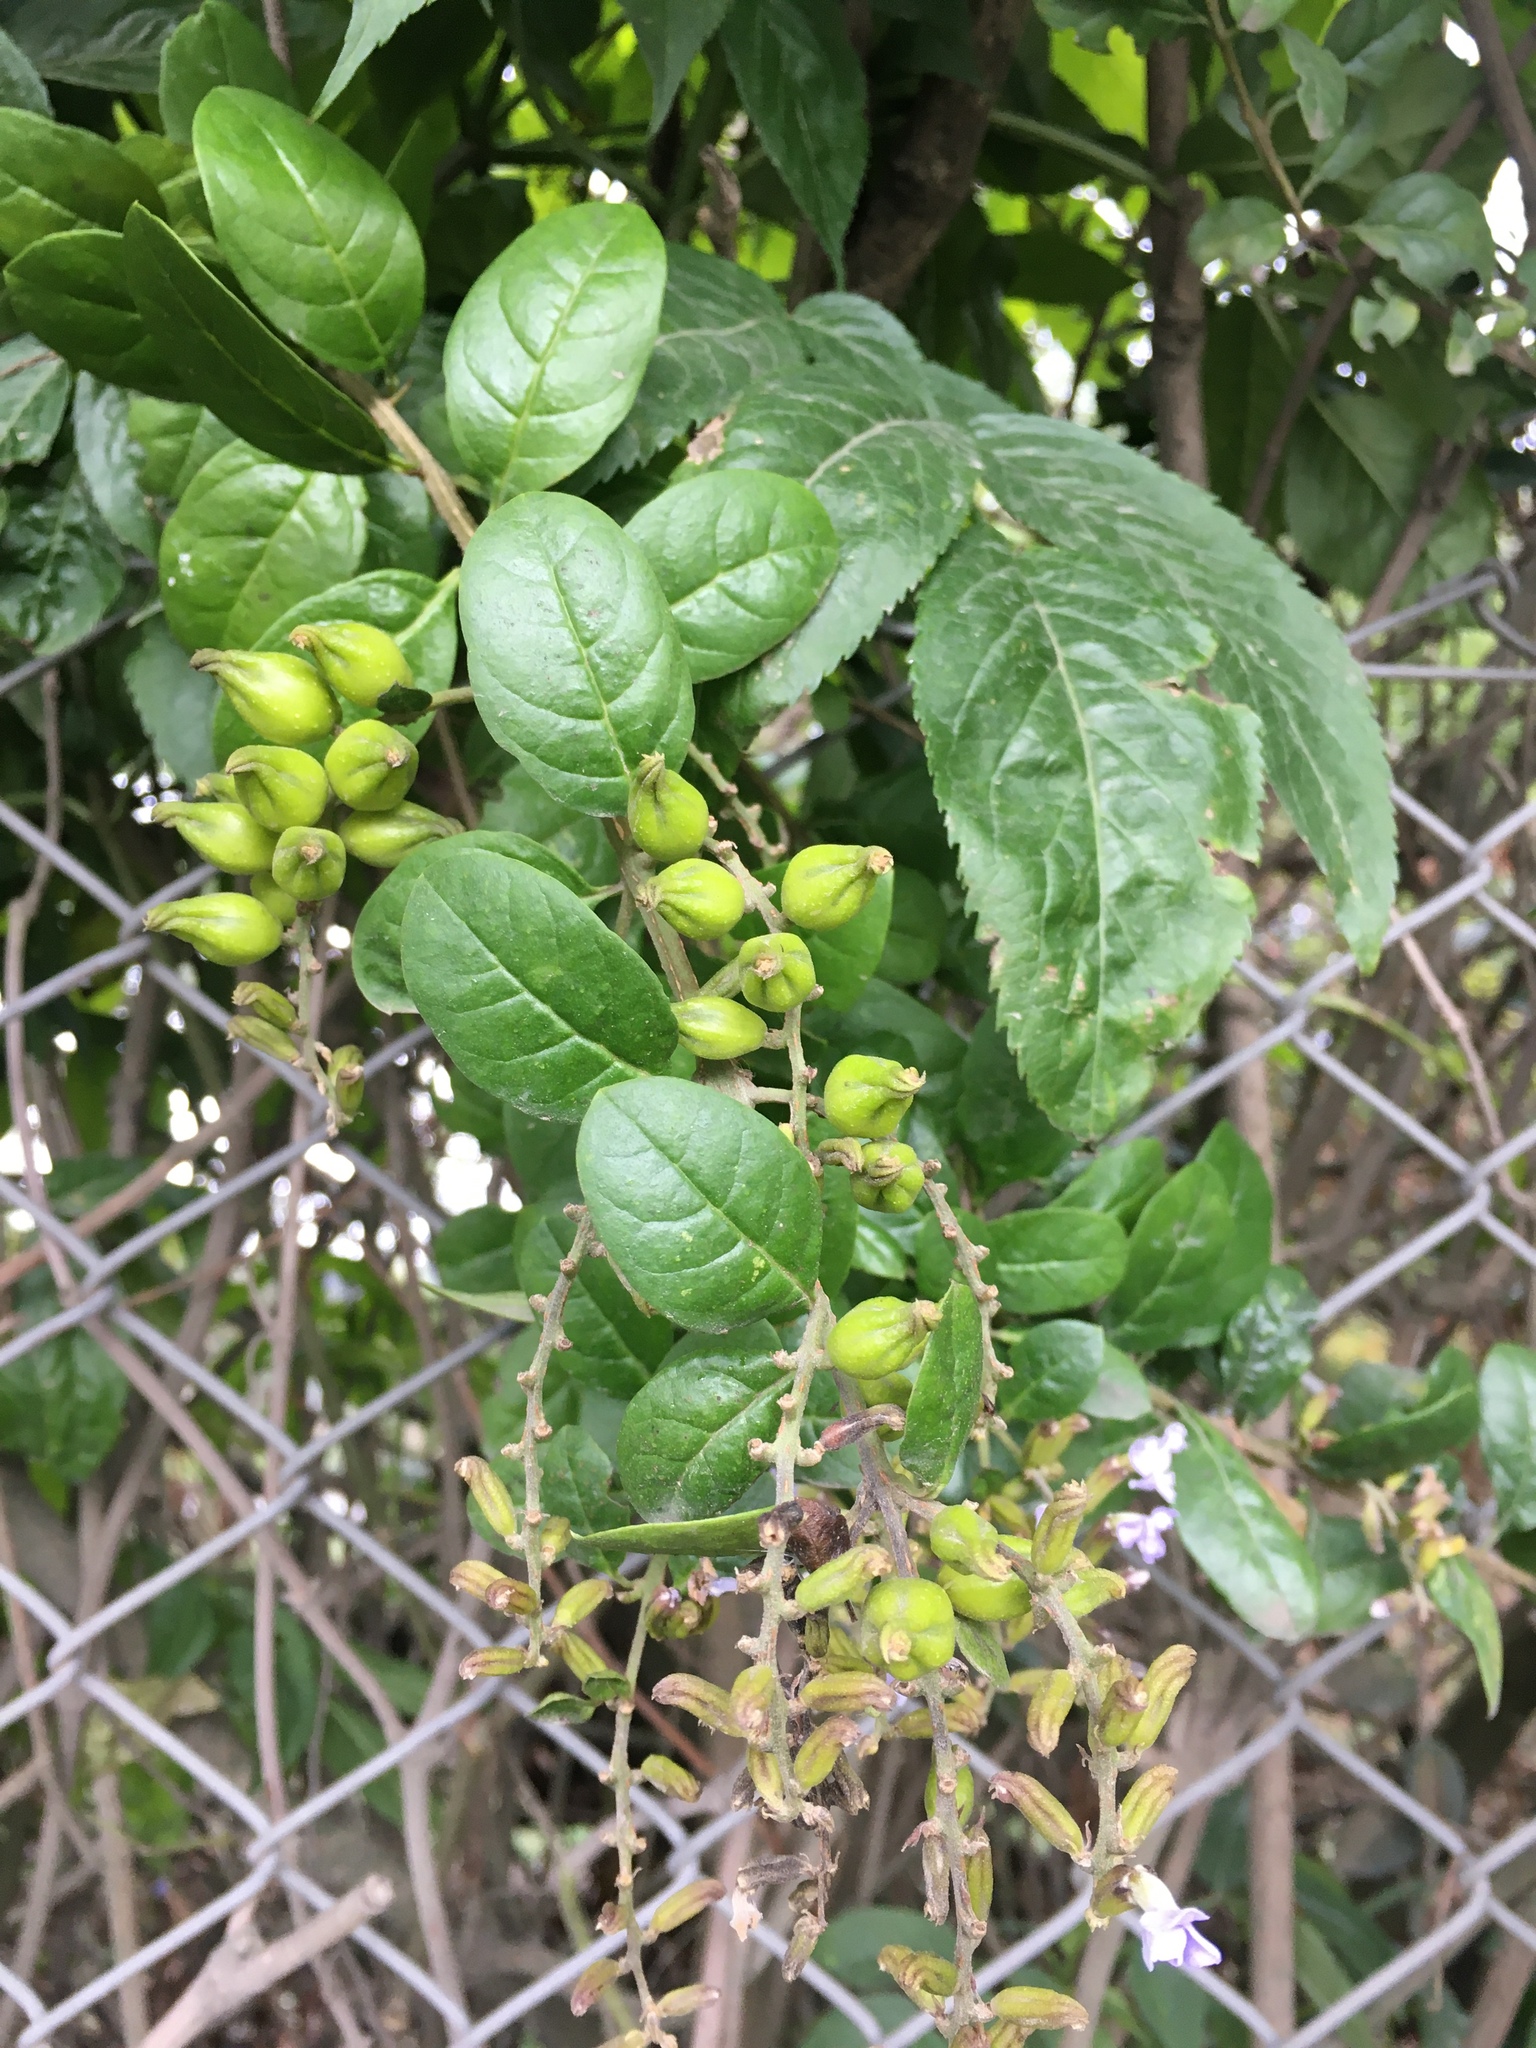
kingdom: Plantae
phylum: Tracheophyta
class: Magnoliopsida
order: Lamiales
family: Verbenaceae
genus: Duranta
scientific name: Duranta mutisii
